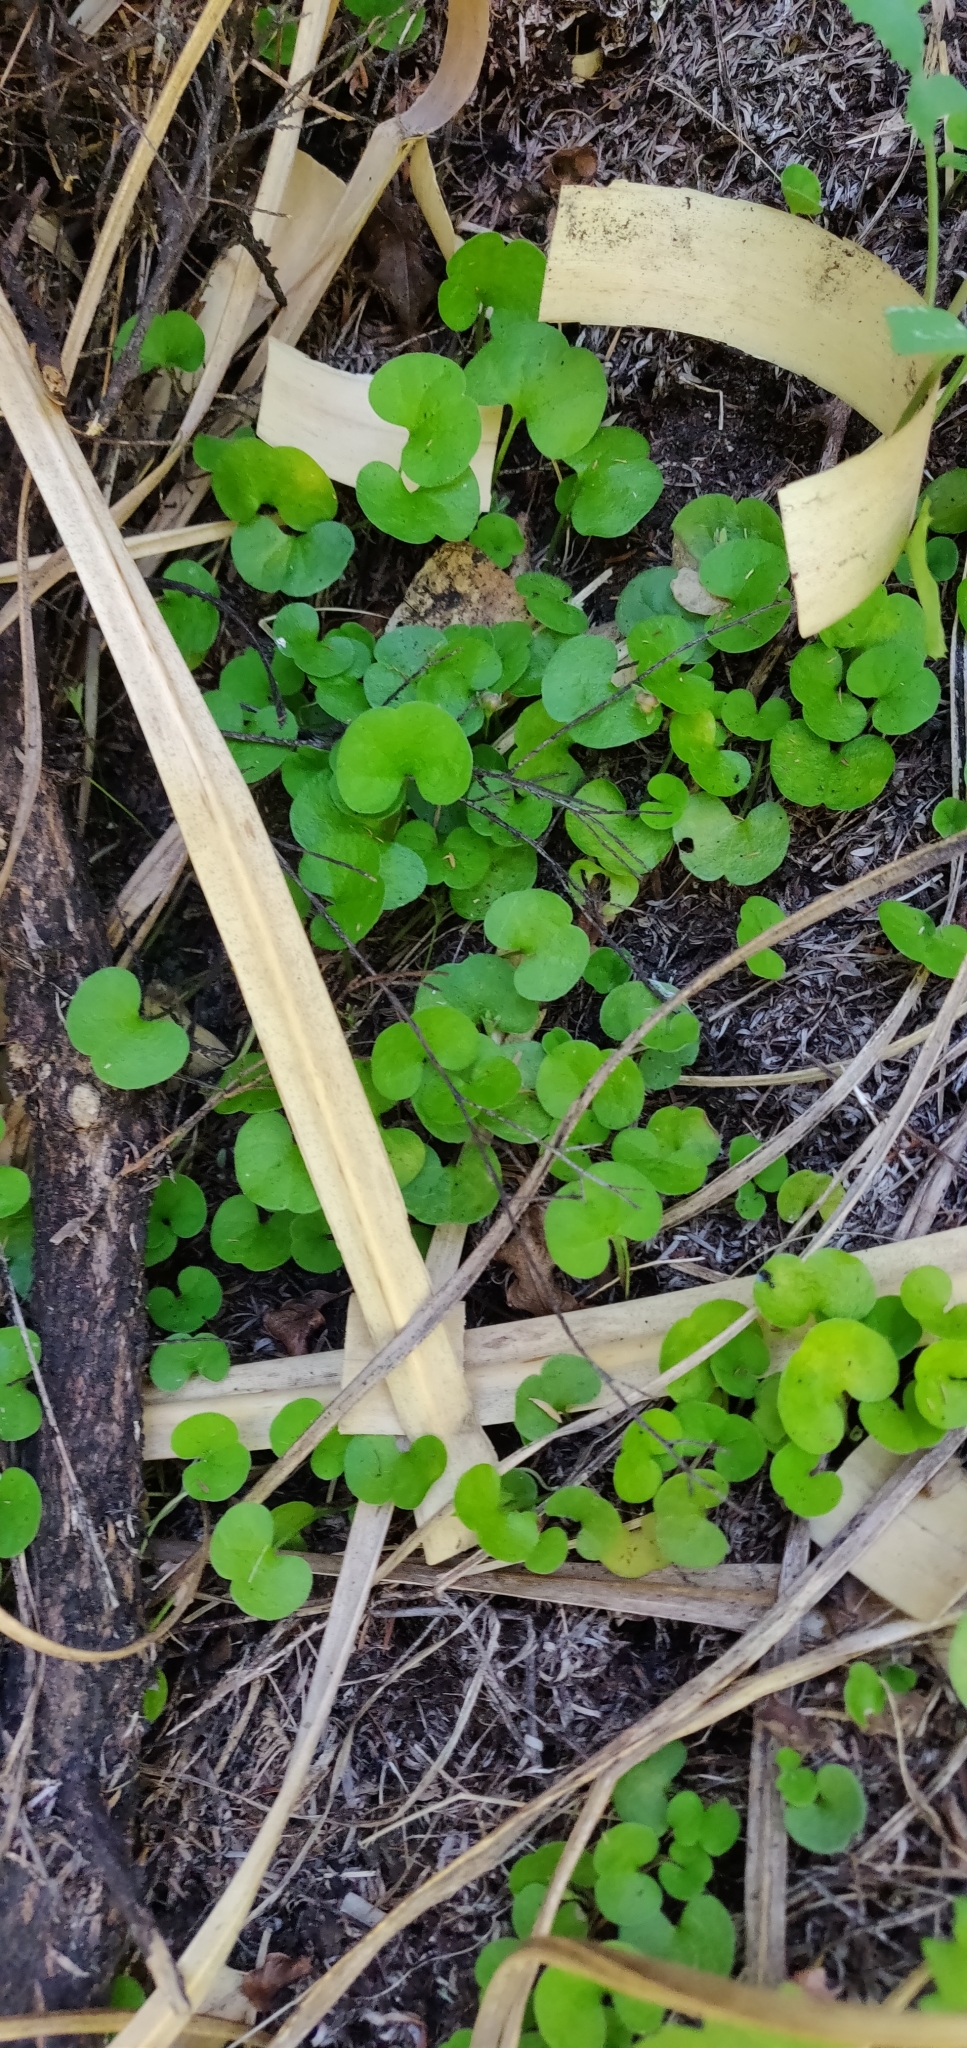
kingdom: Plantae
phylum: Tracheophyta
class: Magnoliopsida
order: Solanales
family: Convolvulaceae
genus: Dichondra
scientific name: Dichondra repens
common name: Kidneyweed
